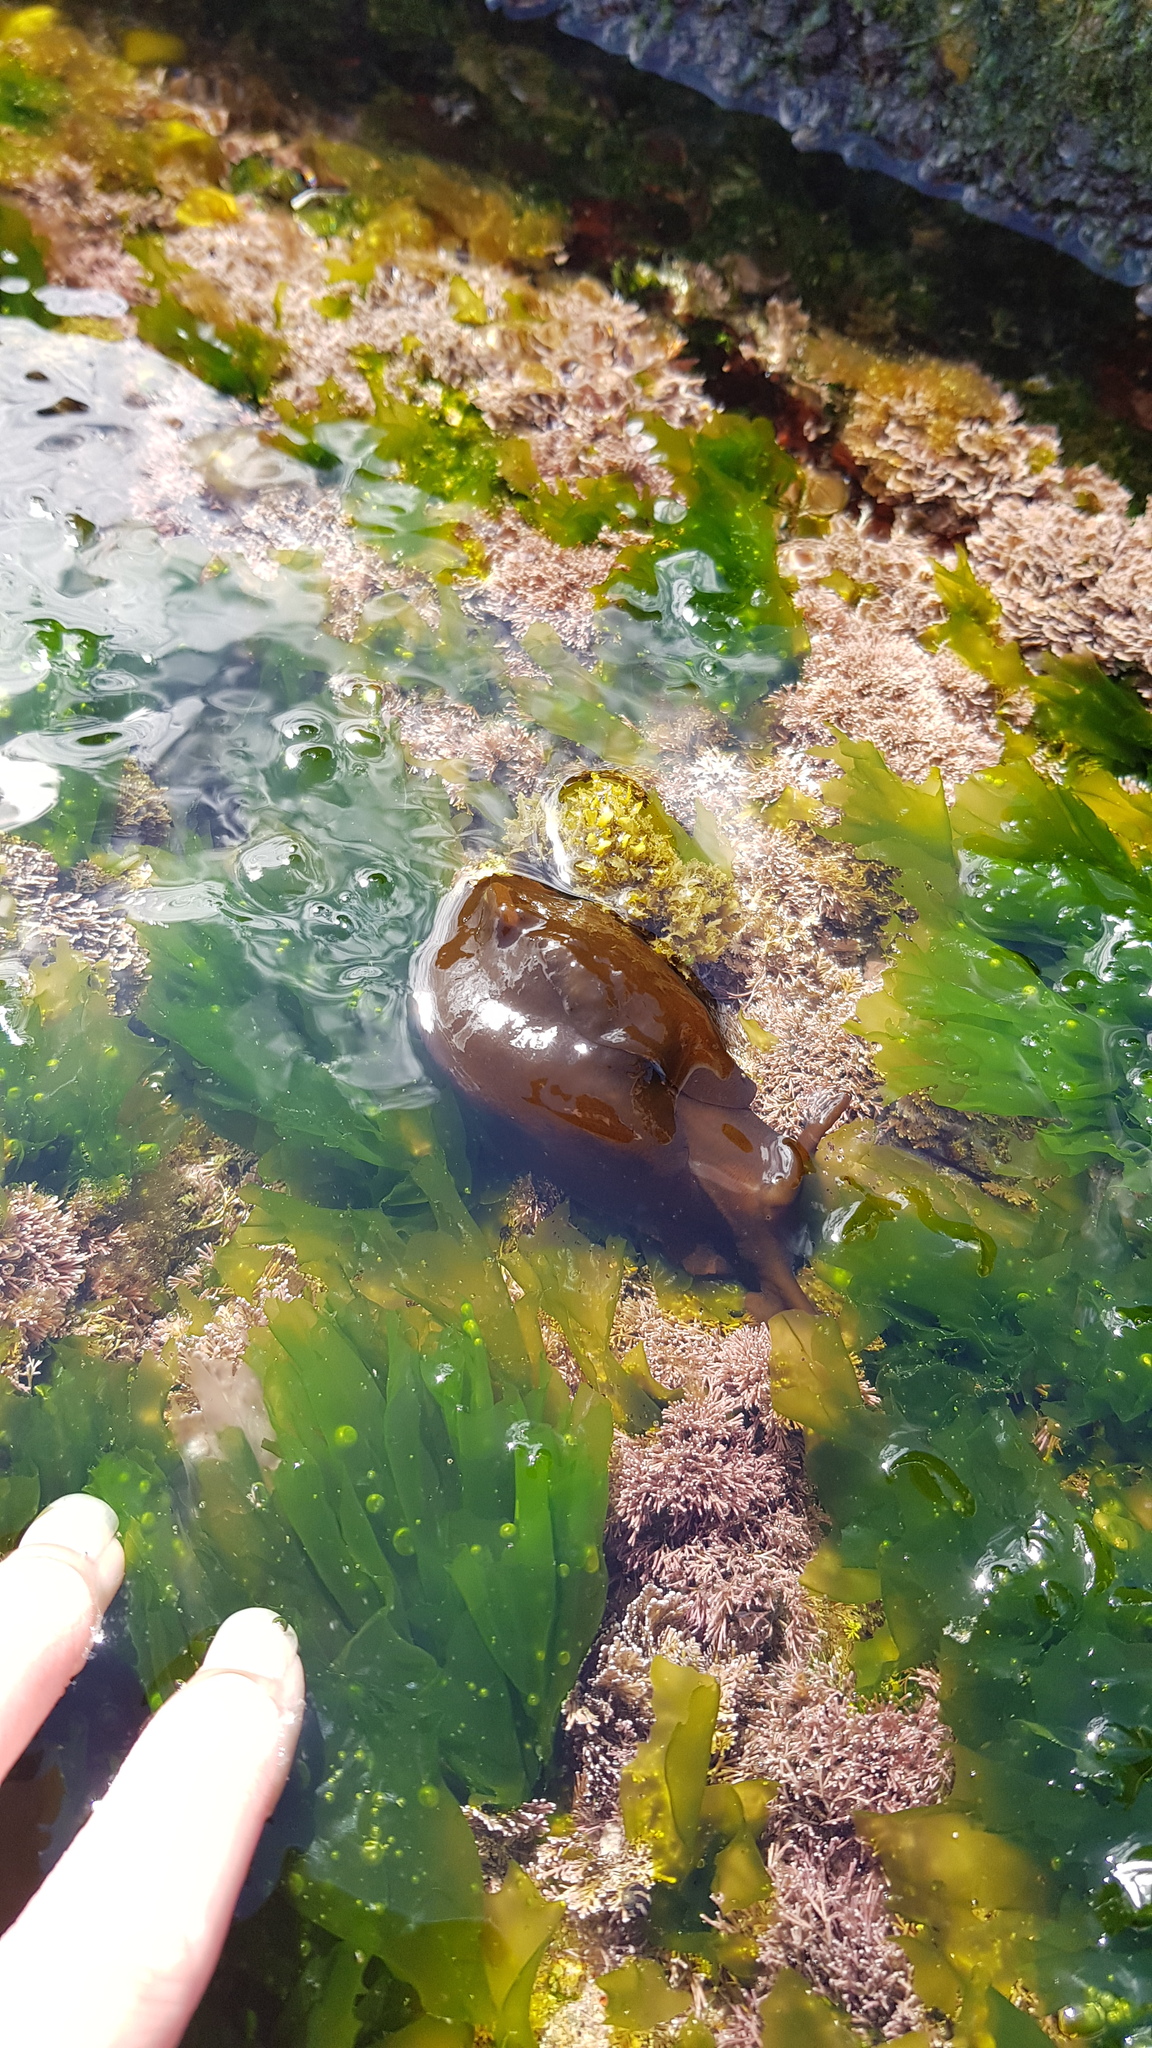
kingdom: Animalia
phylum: Mollusca
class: Gastropoda
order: Aplysiida
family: Aplysiidae
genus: Aplysia
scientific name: Aplysia juliana
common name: Walking sea hare
